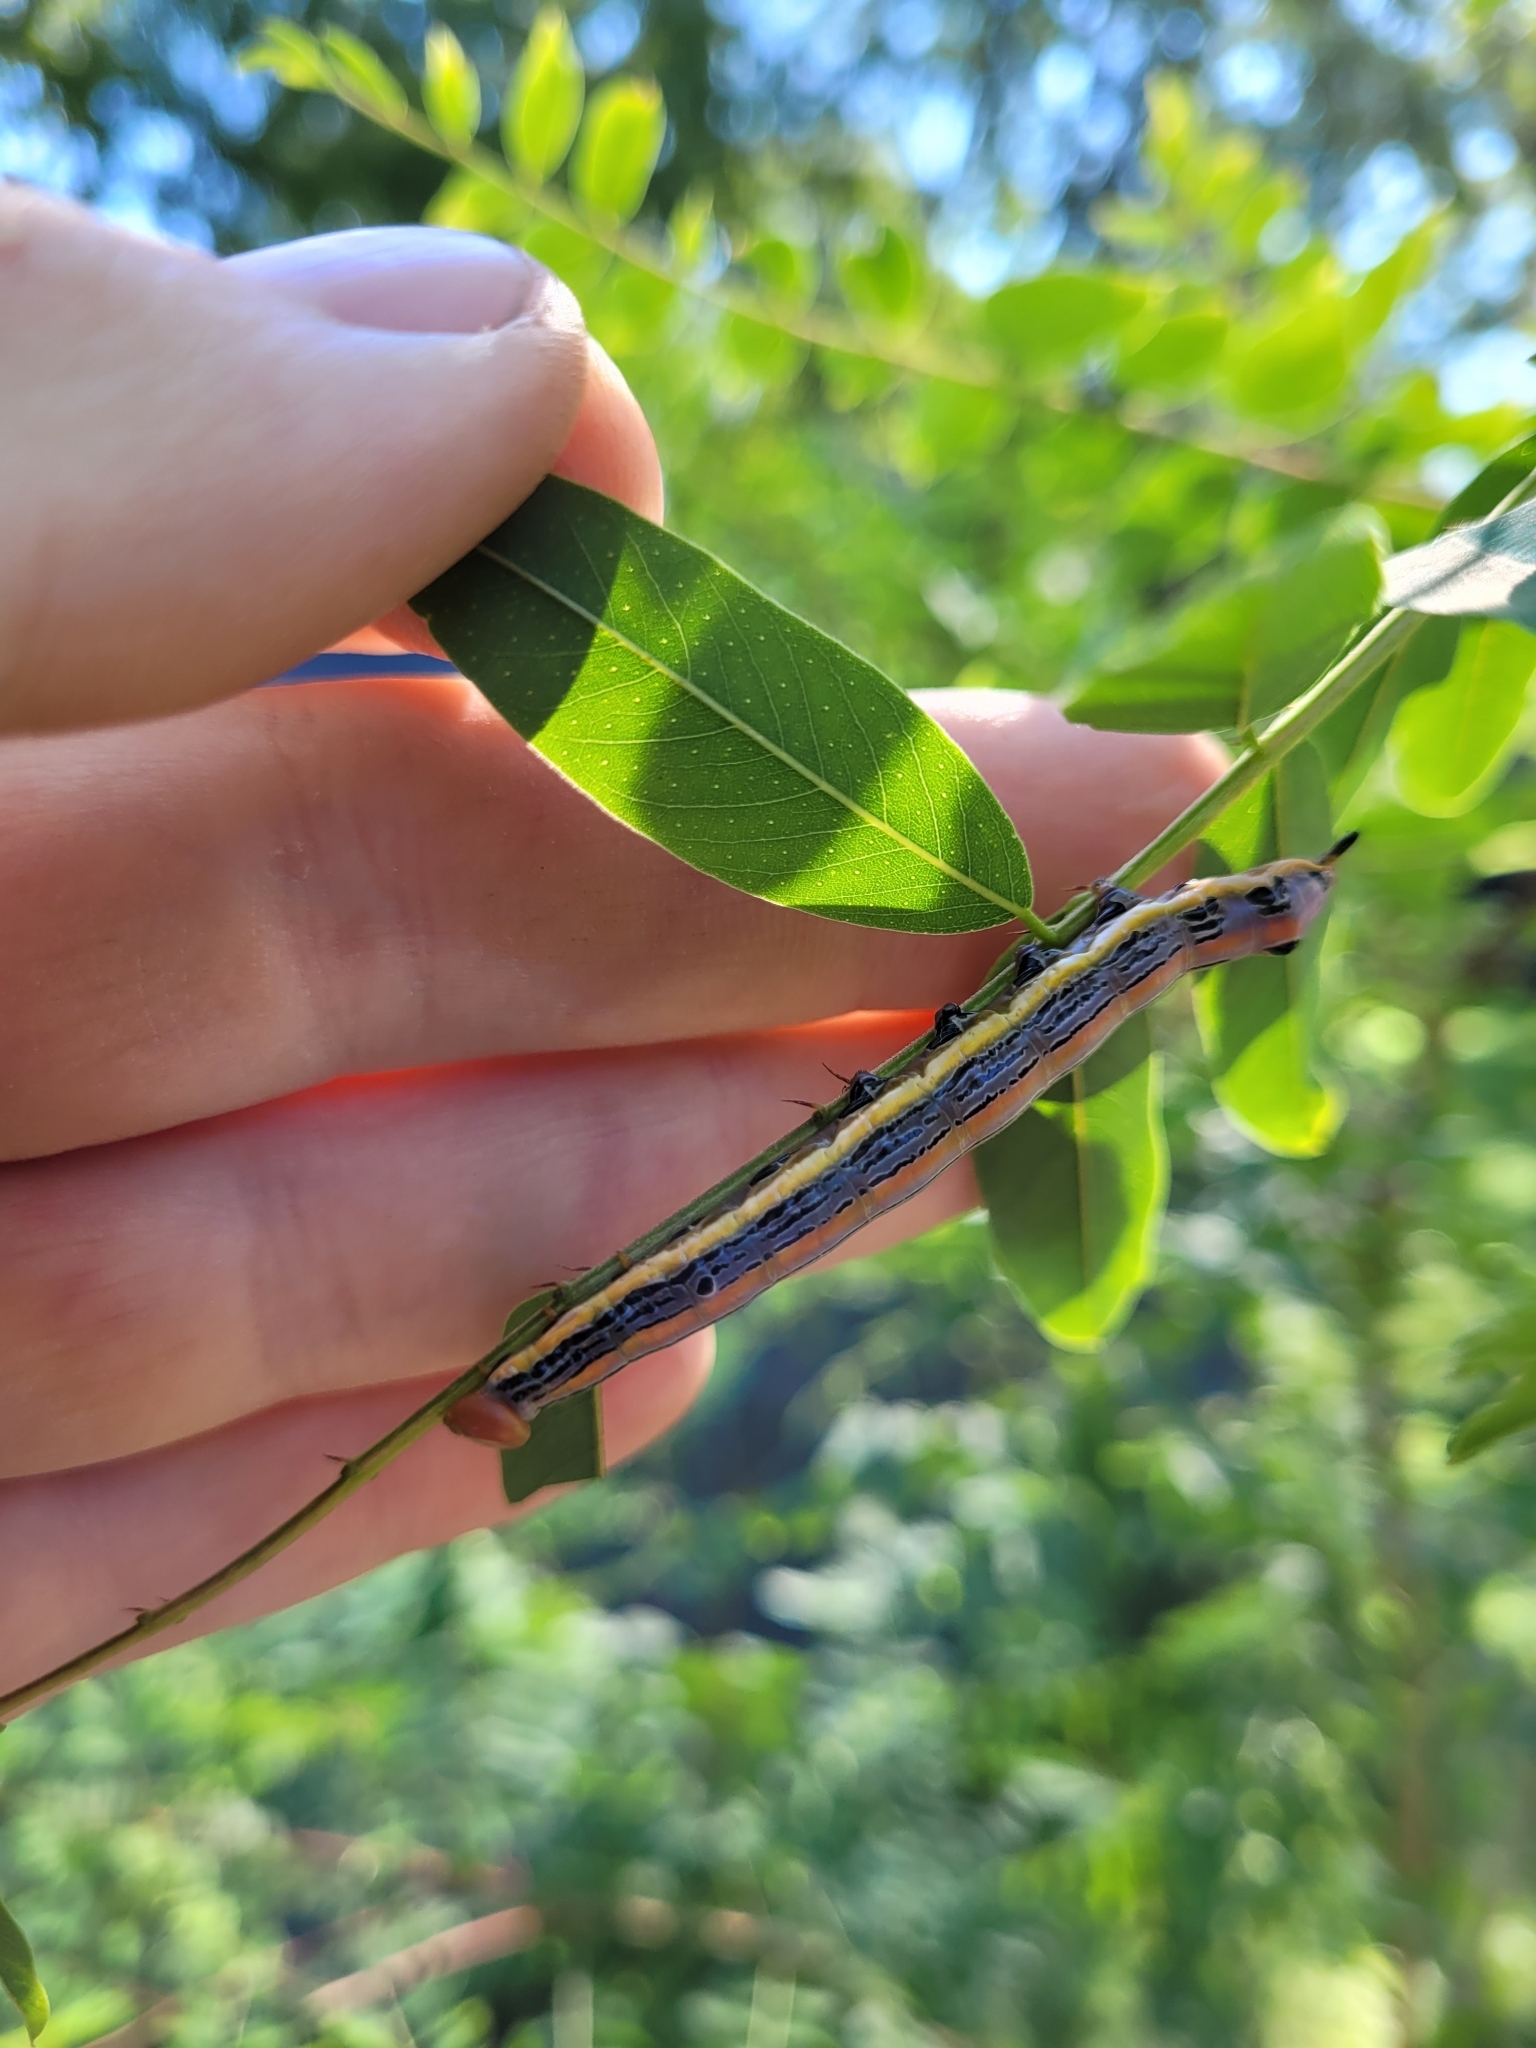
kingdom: Animalia
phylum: Arthropoda
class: Insecta
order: Lepidoptera
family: Notodontidae
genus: Dasylophia
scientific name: Dasylophia anguina
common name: Black-spotted prominent
